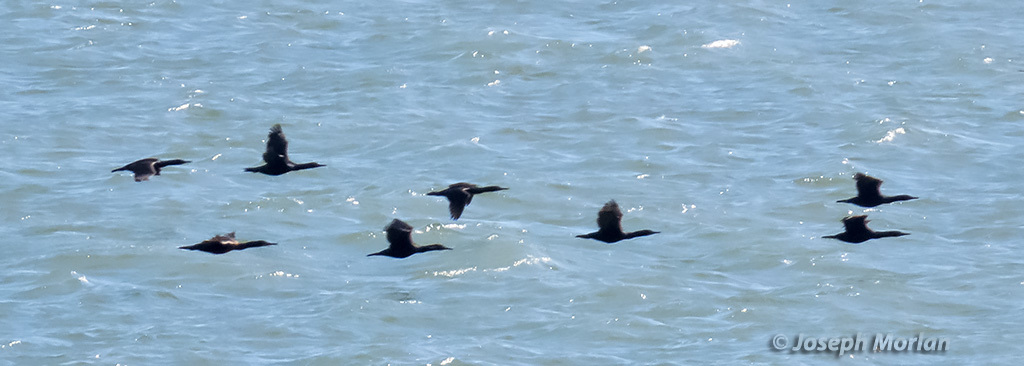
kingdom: Animalia
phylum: Chordata
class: Aves
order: Suliformes
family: Phalacrocoracidae
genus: Urile
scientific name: Urile penicillatus
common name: Brandt's cormorant
